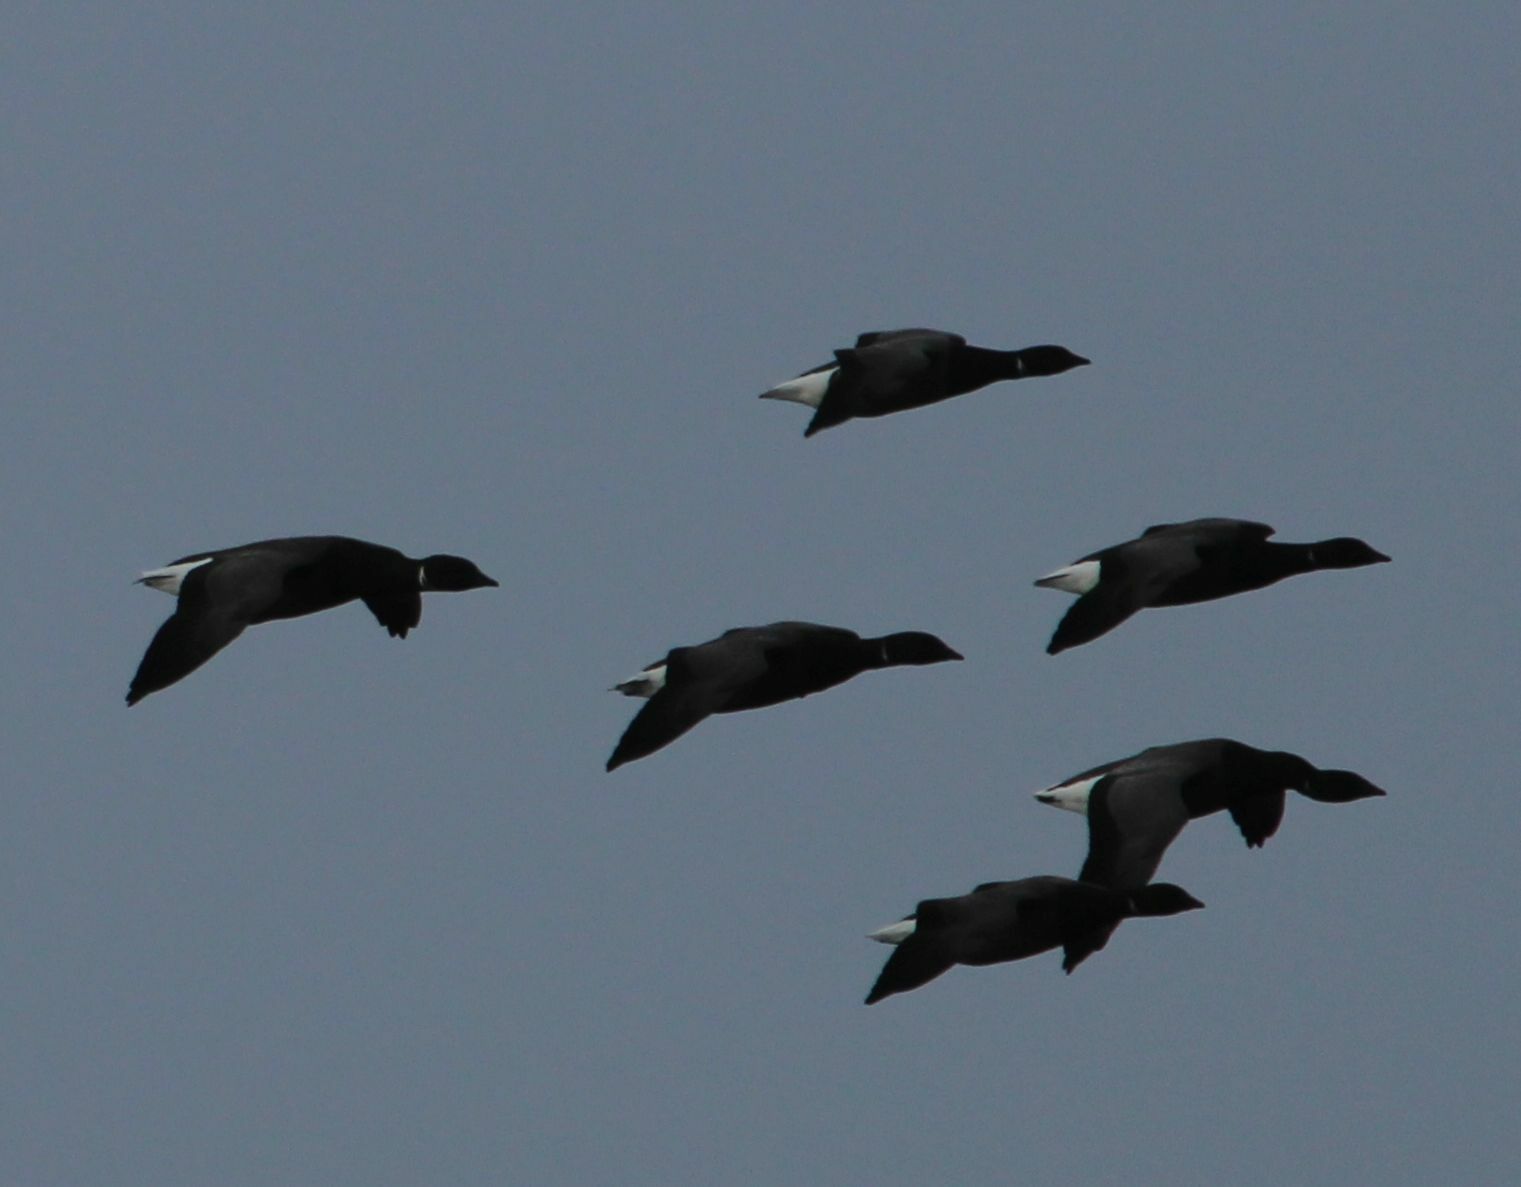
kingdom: Animalia
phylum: Chordata
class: Aves
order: Anseriformes
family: Anatidae
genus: Branta
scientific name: Branta bernicla
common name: Brant goose
